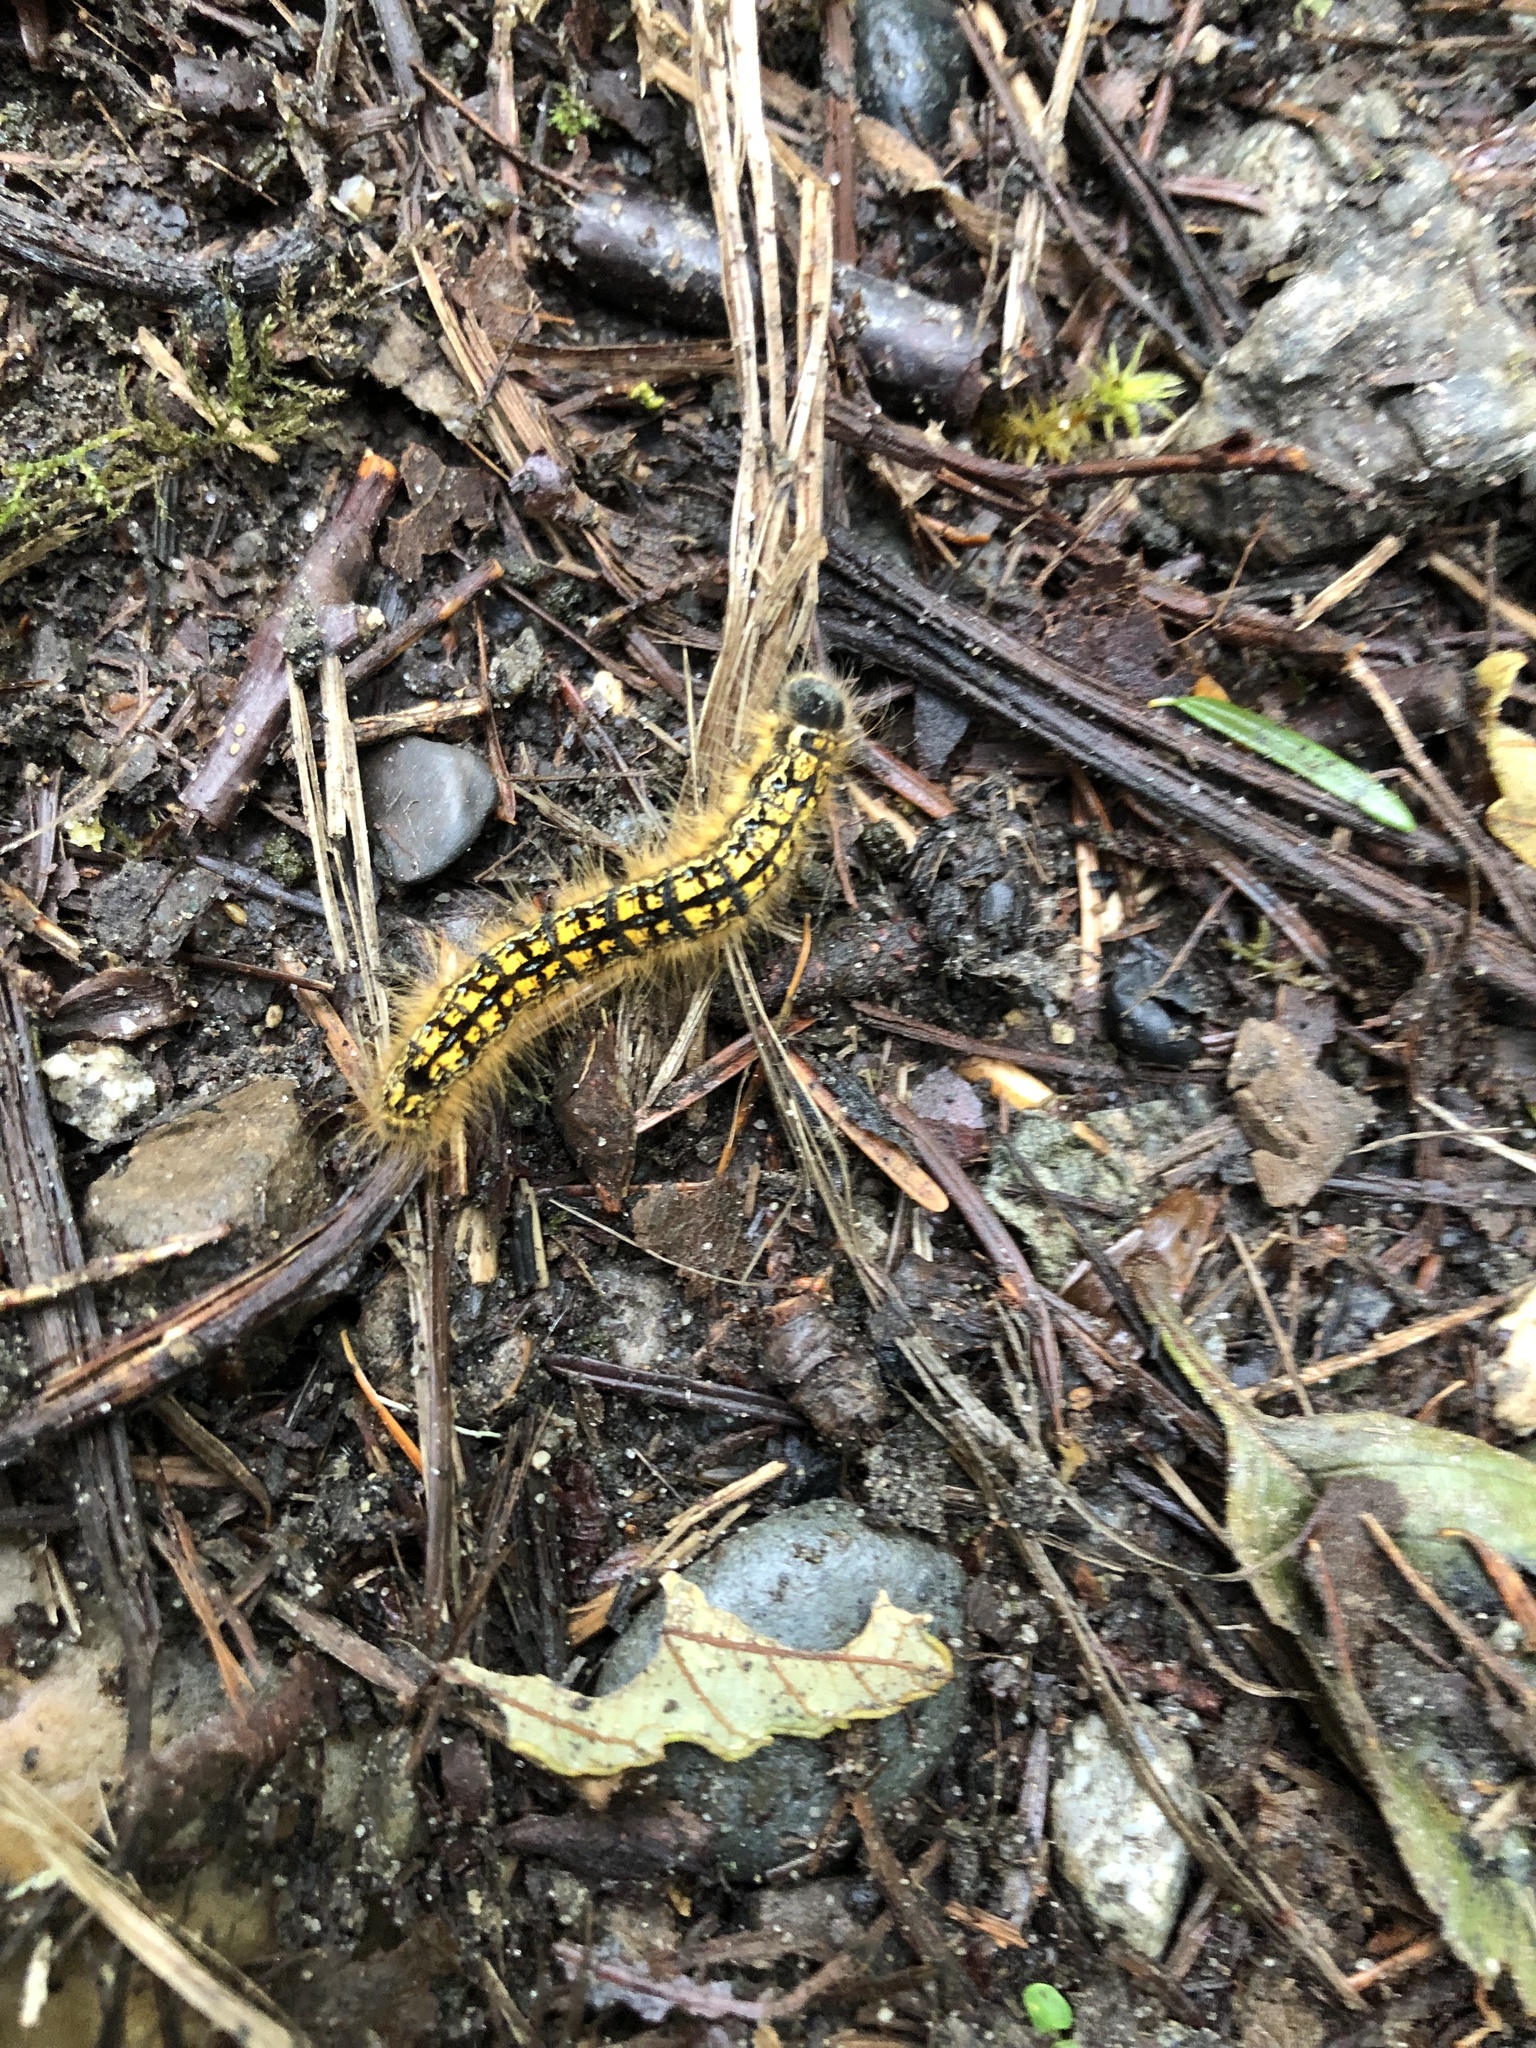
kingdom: Animalia
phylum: Arthropoda
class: Insecta
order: Lepidoptera
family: Lasiocampidae
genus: Malacosoma
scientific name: Malacosoma californica
